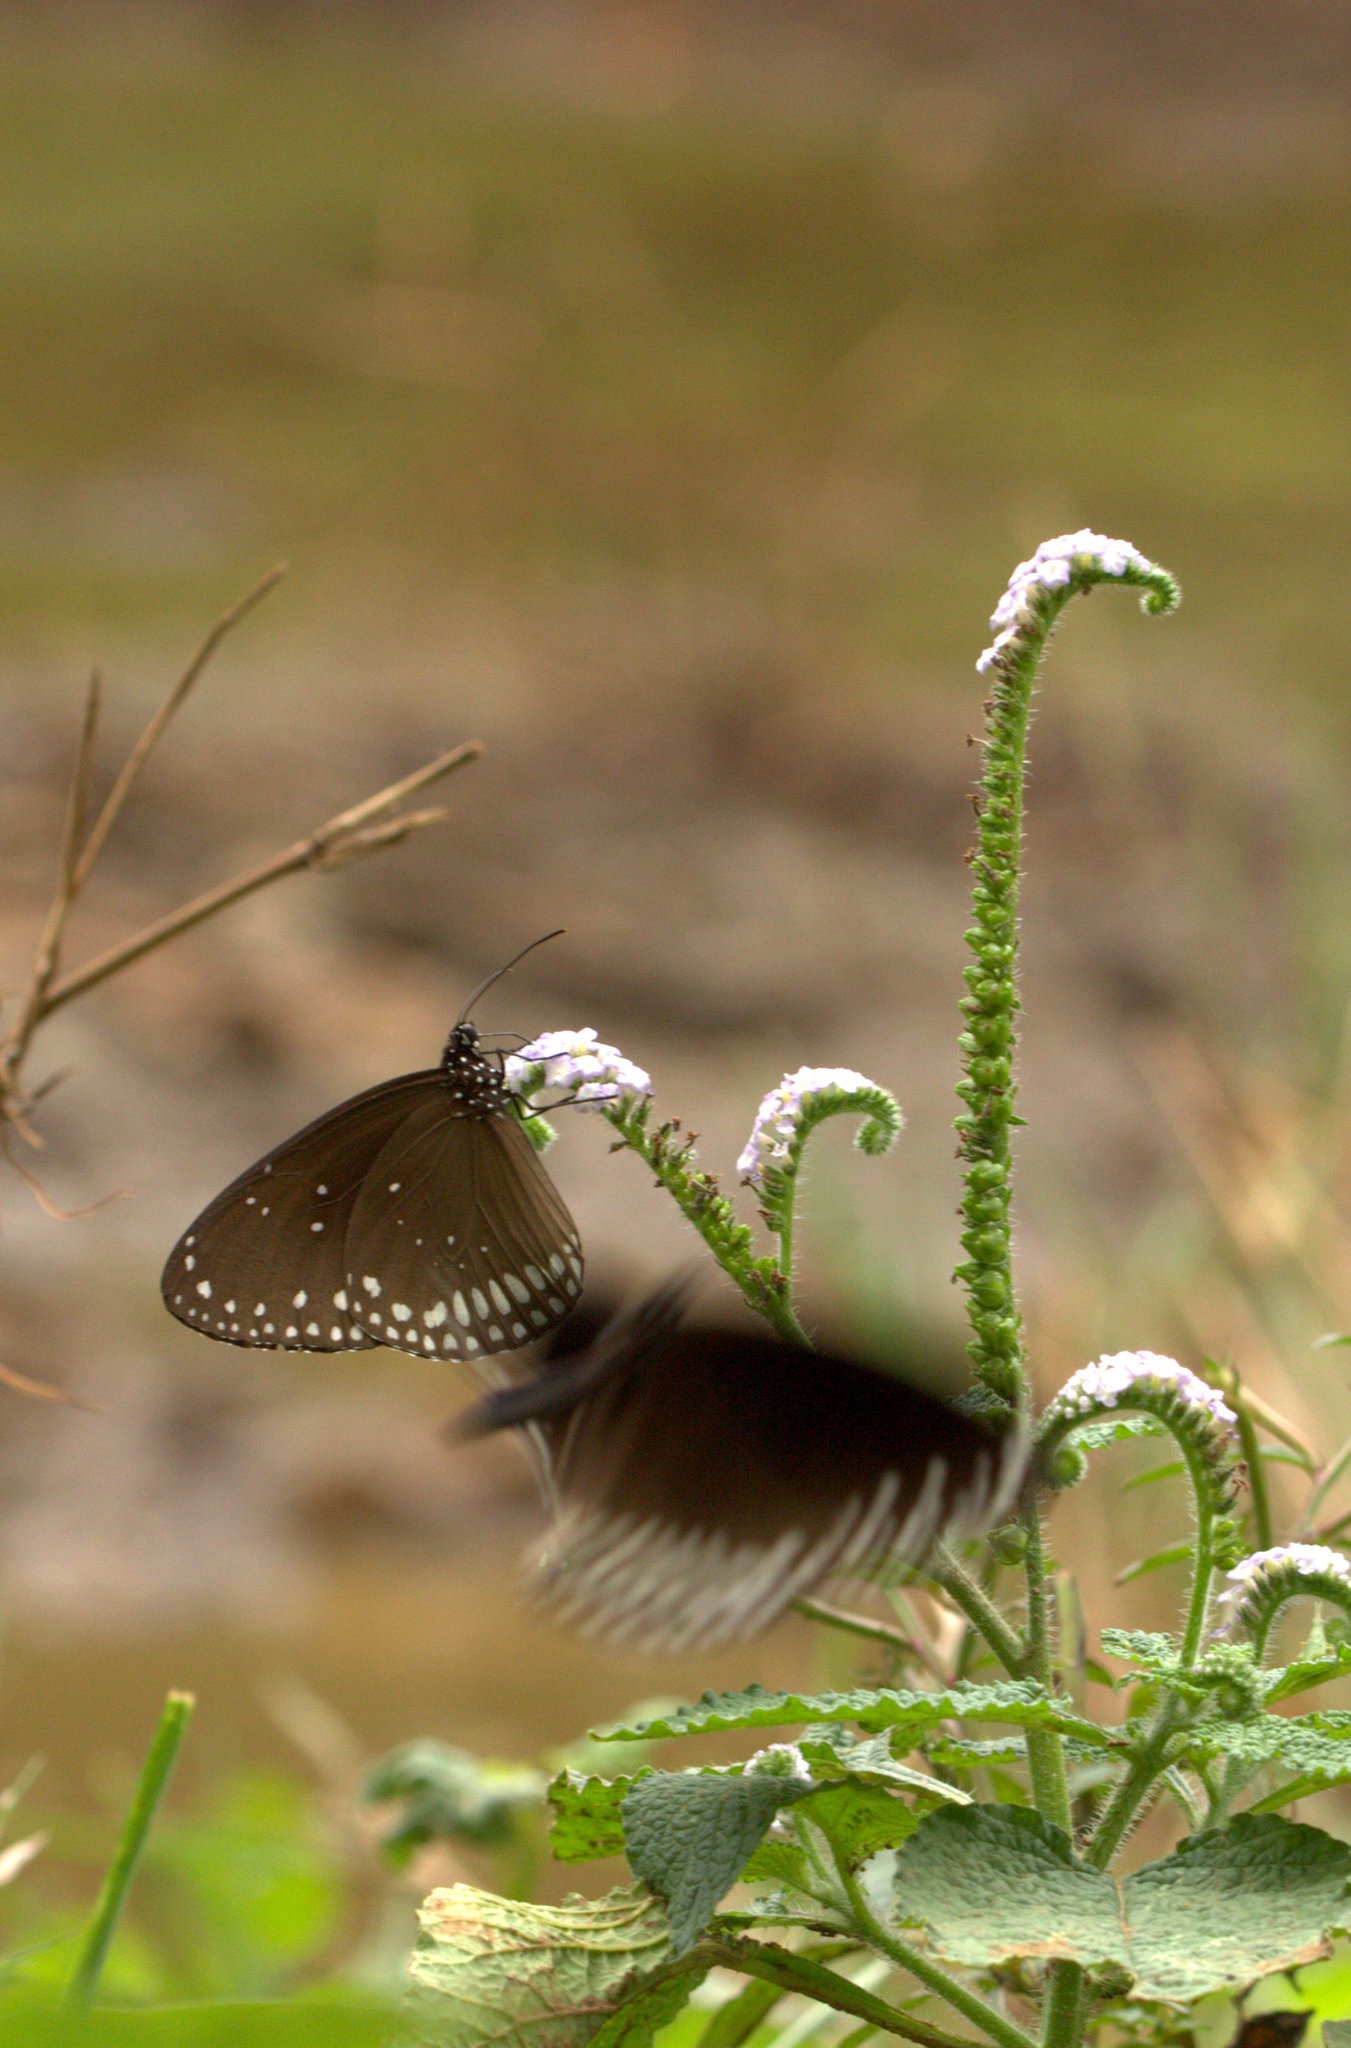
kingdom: Animalia
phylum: Arthropoda
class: Insecta
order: Lepidoptera
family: Nymphalidae
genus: Euploea
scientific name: Euploea sylvester
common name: Double-branded crow butterfly
